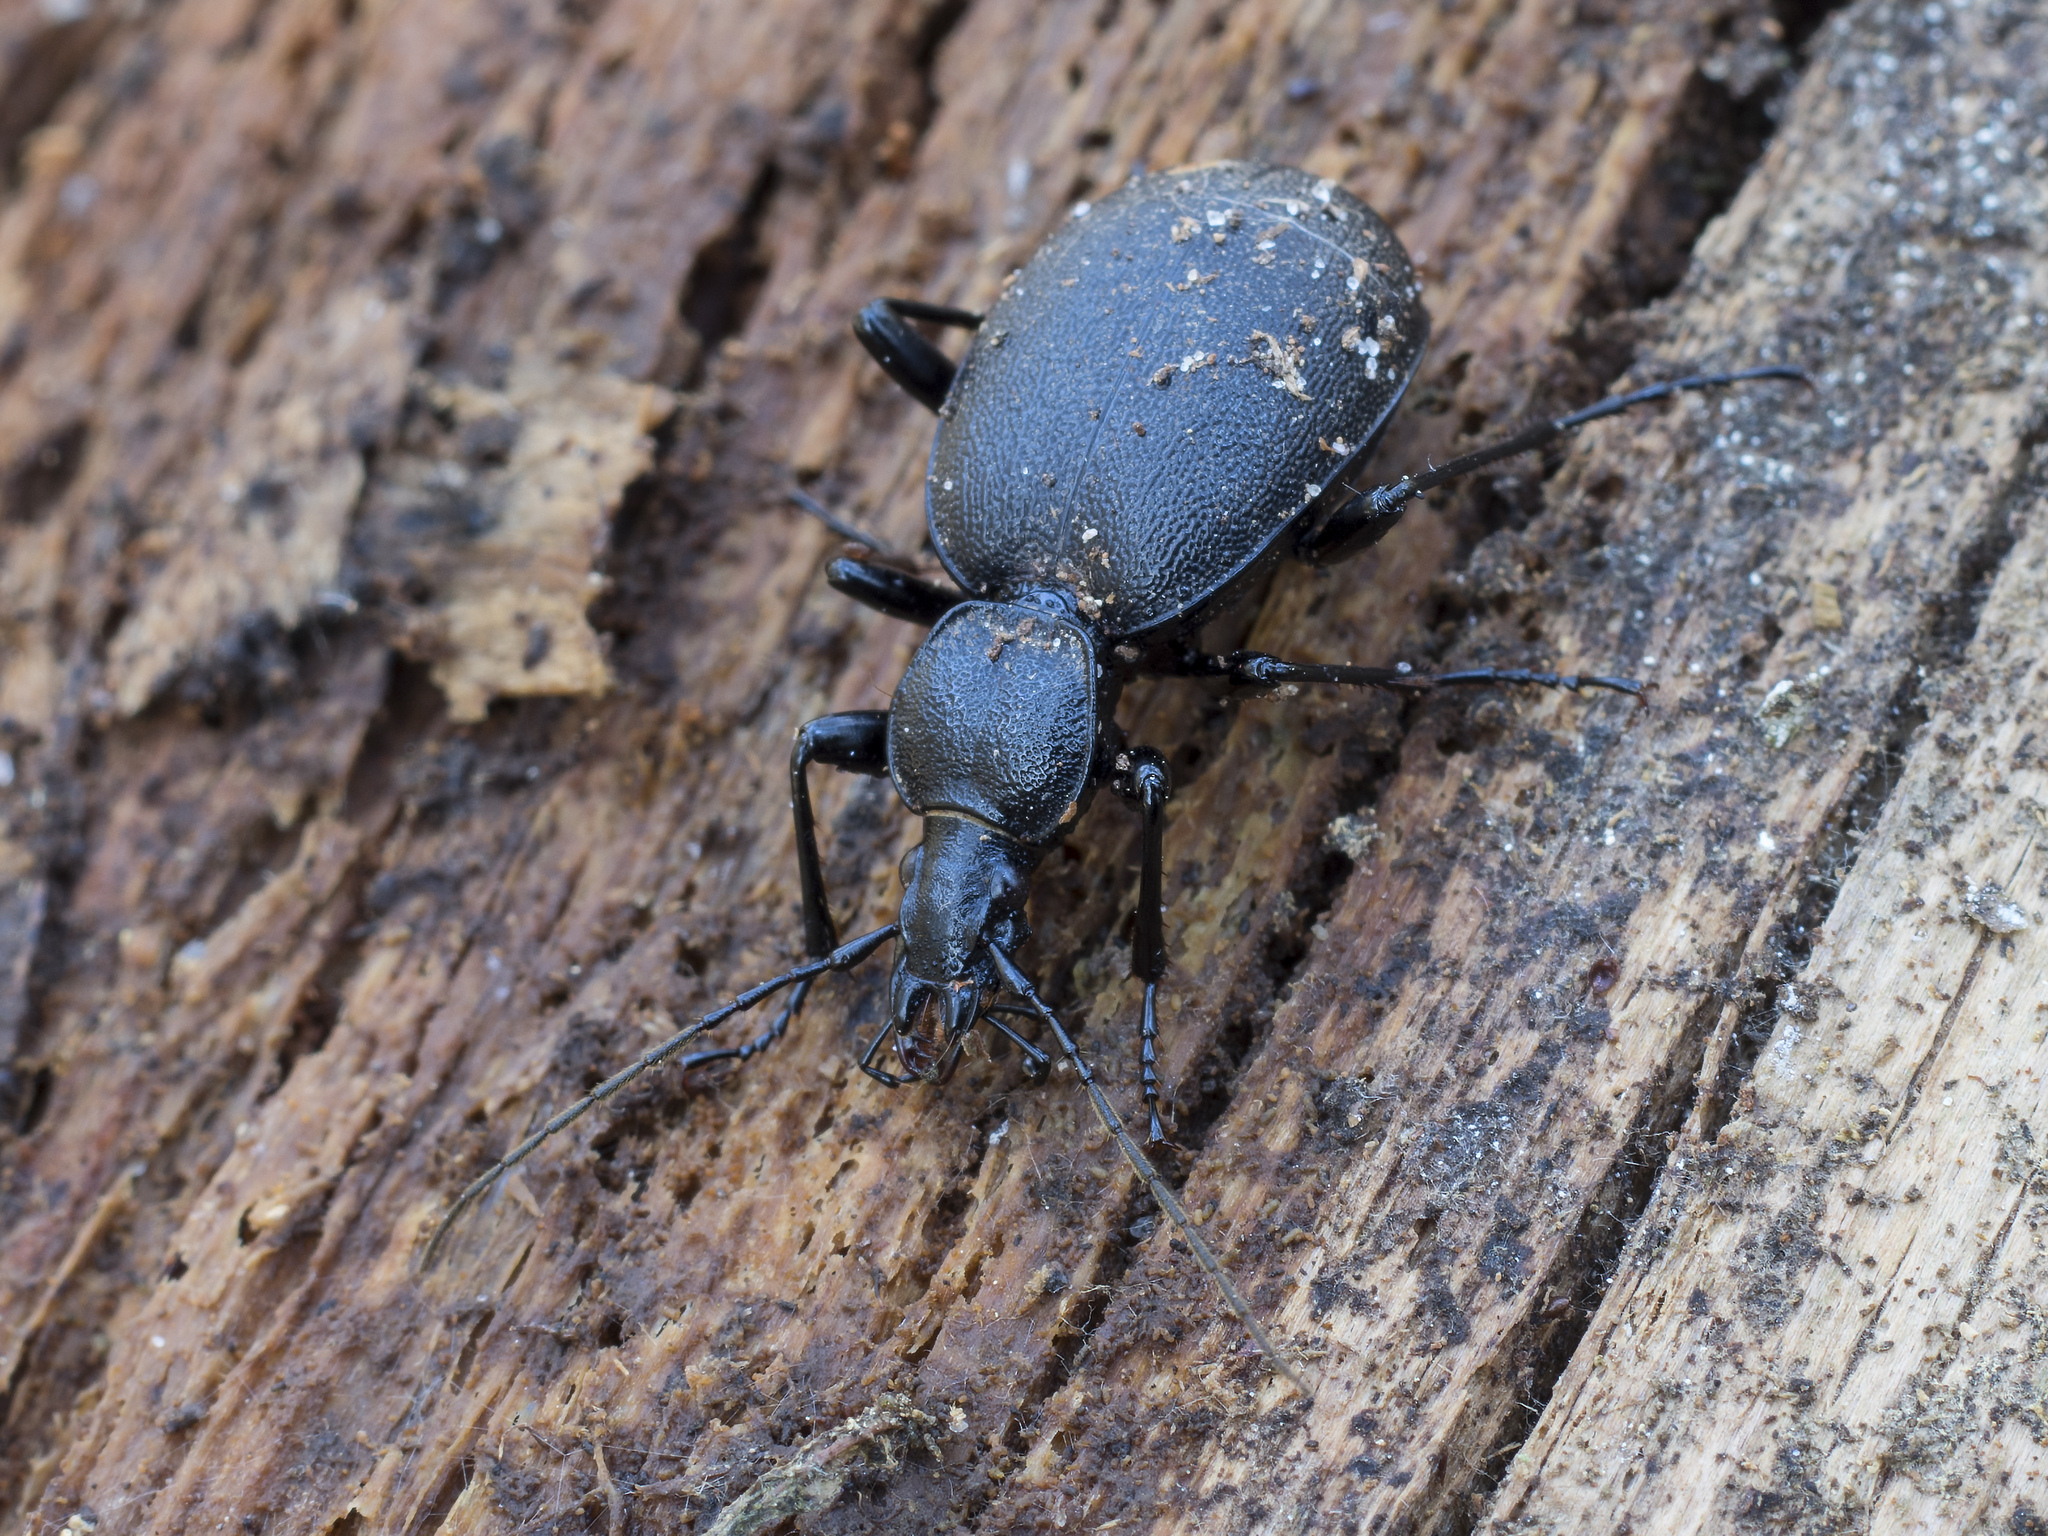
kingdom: Animalia
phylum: Arthropoda
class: Insecta
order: Coleoptera
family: Carabidae
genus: Cychrus
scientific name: Cychrus caraboides
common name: Snail hunter
